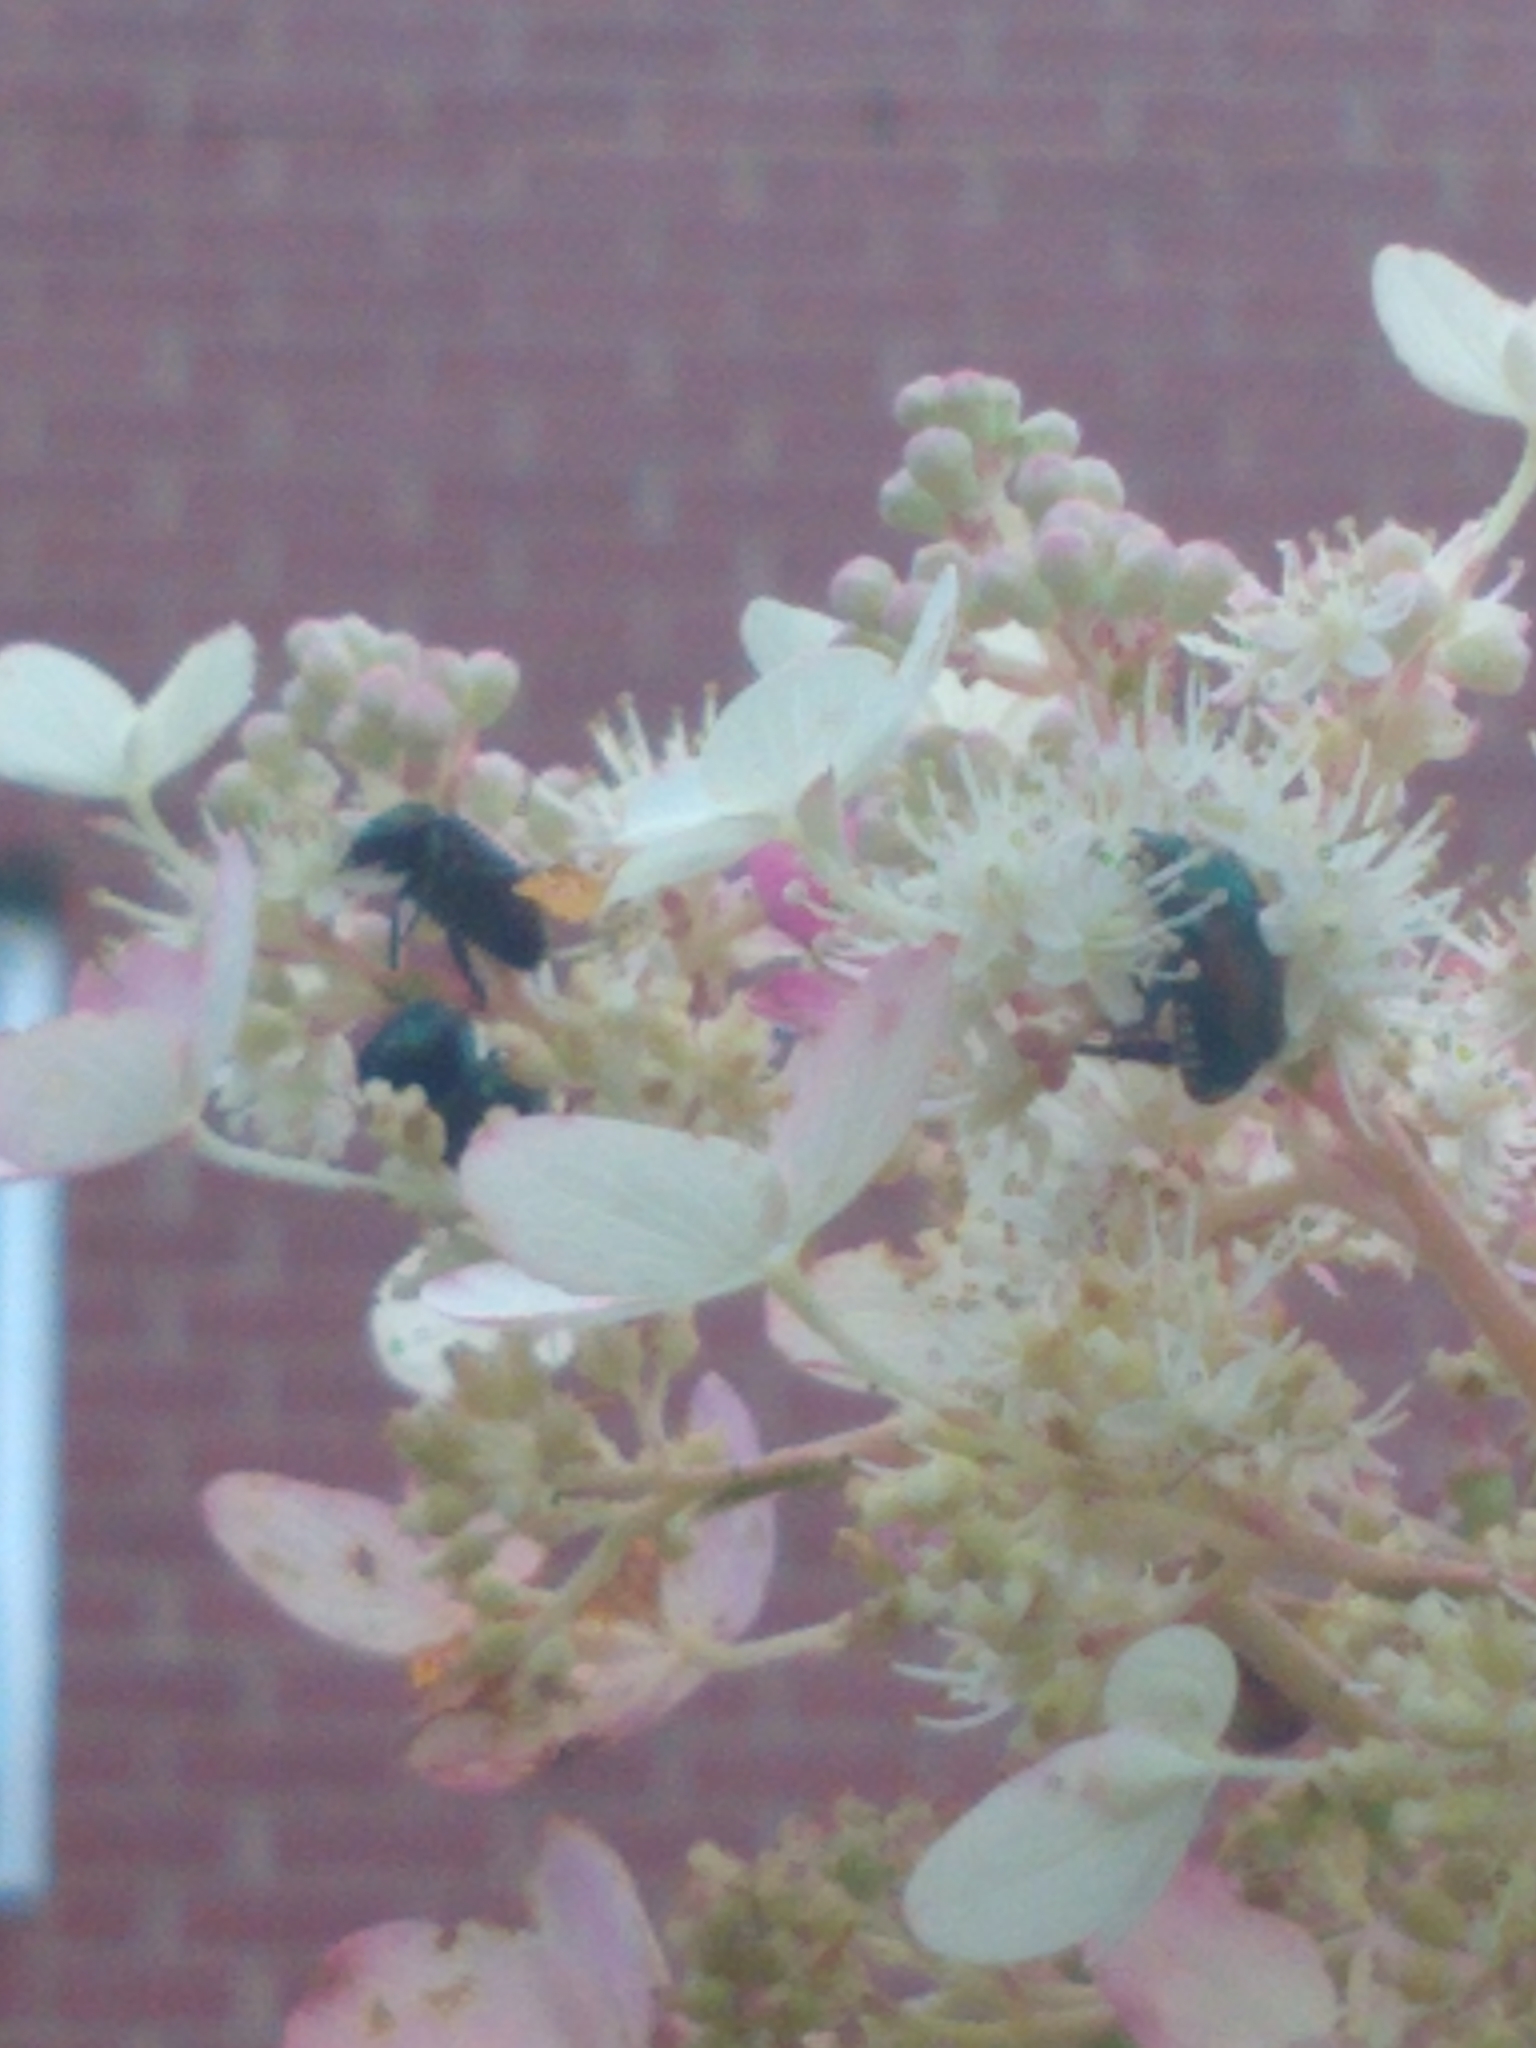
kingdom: Animalia
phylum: Arthropoda
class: Insecta
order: Coleoptera
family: Scarabaeidae
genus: Popillia
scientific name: Popillia japonica
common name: Japanese beetle
